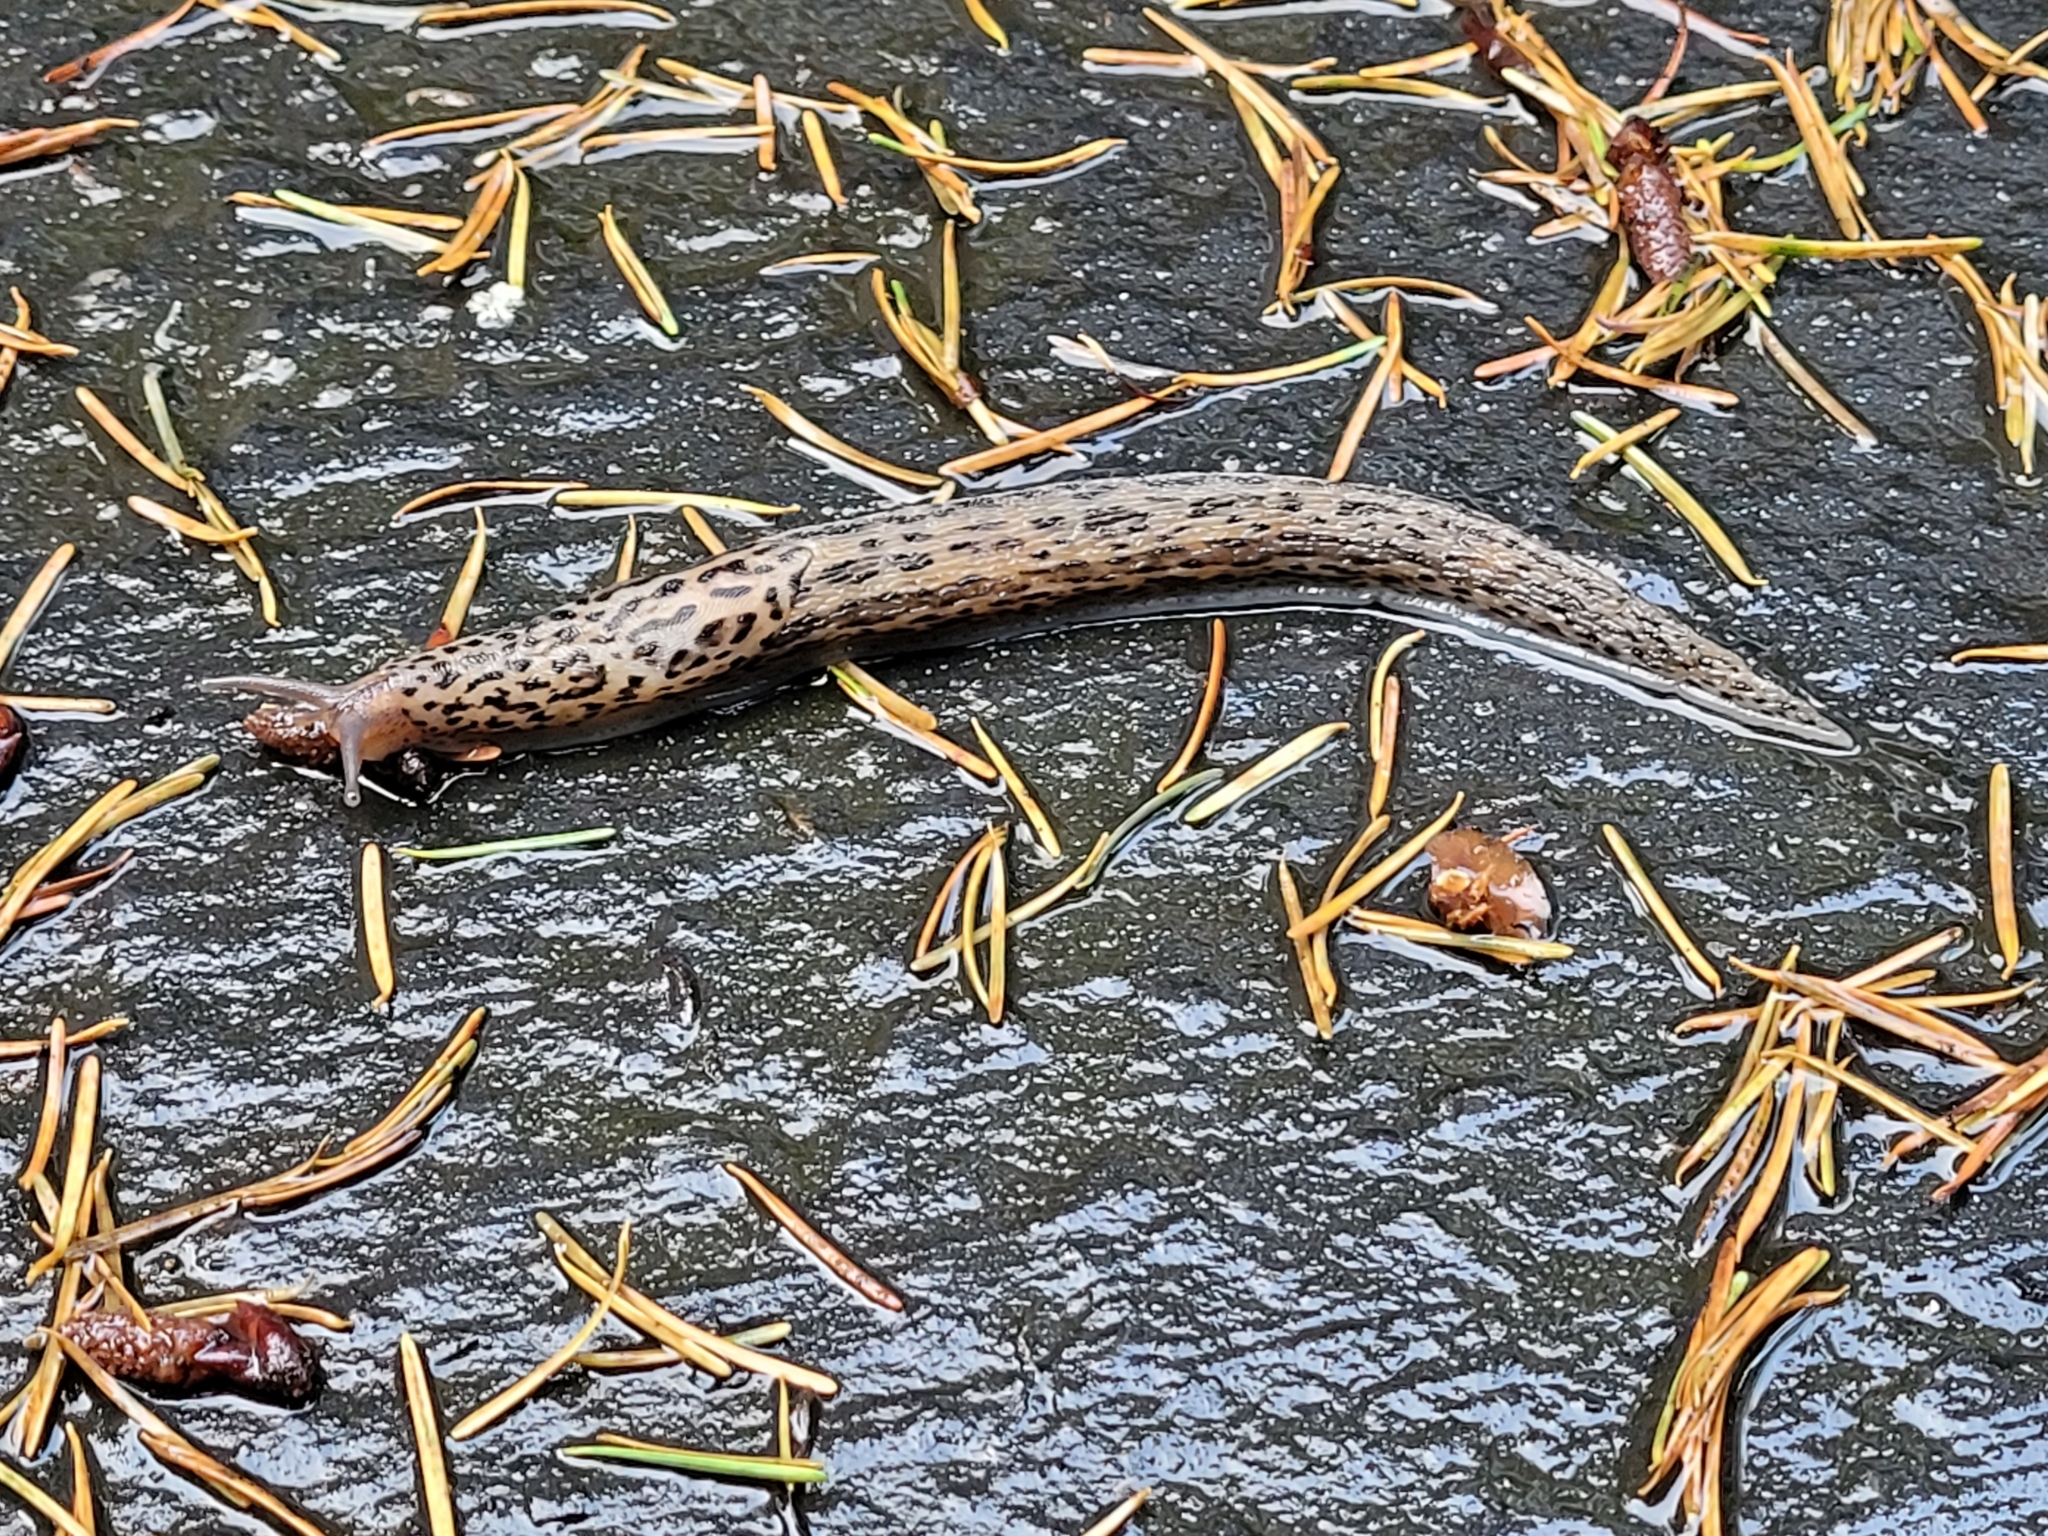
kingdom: Animalia
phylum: Mollusca
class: Gastropoda
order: Stylommatophora
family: Limacidae
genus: Limax
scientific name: Limax maximus
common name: Great grey slug
